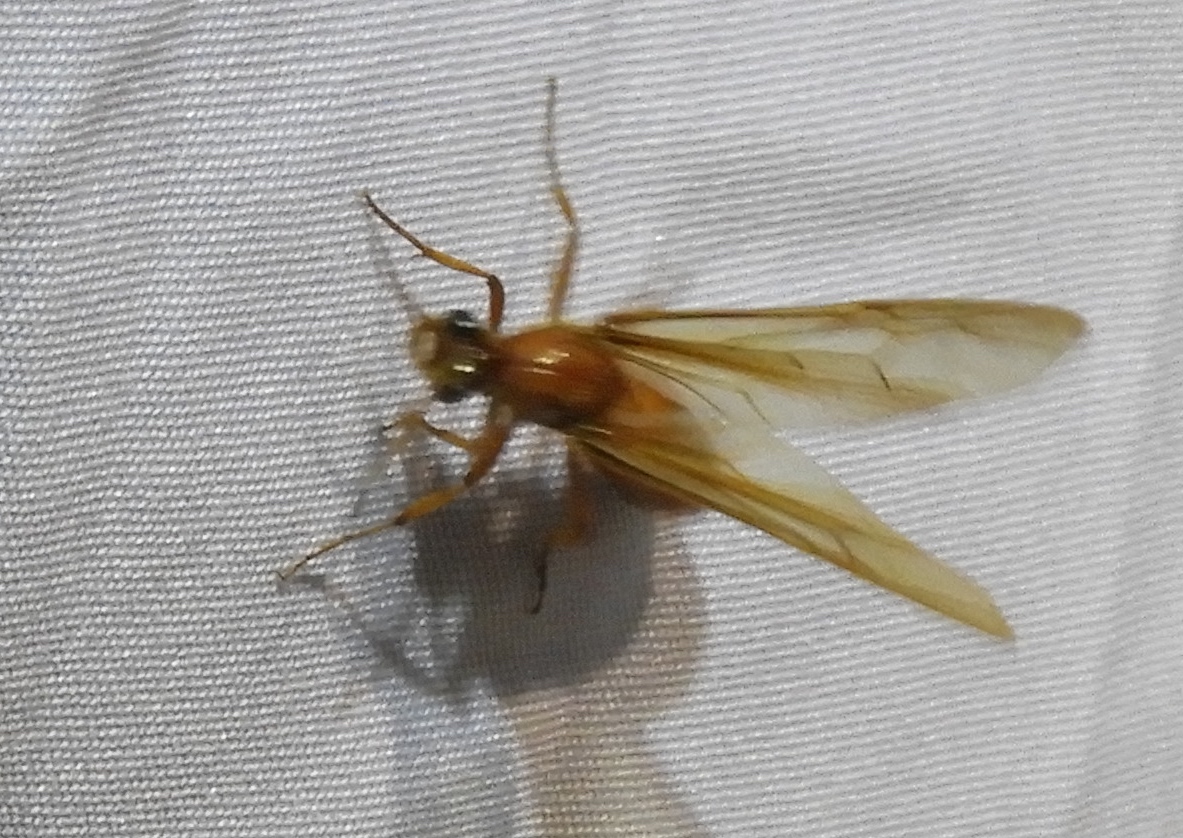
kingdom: Animalia
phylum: Arthropoda
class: Insecta
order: Hymenoptera
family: Formicidae
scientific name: Formicidae
